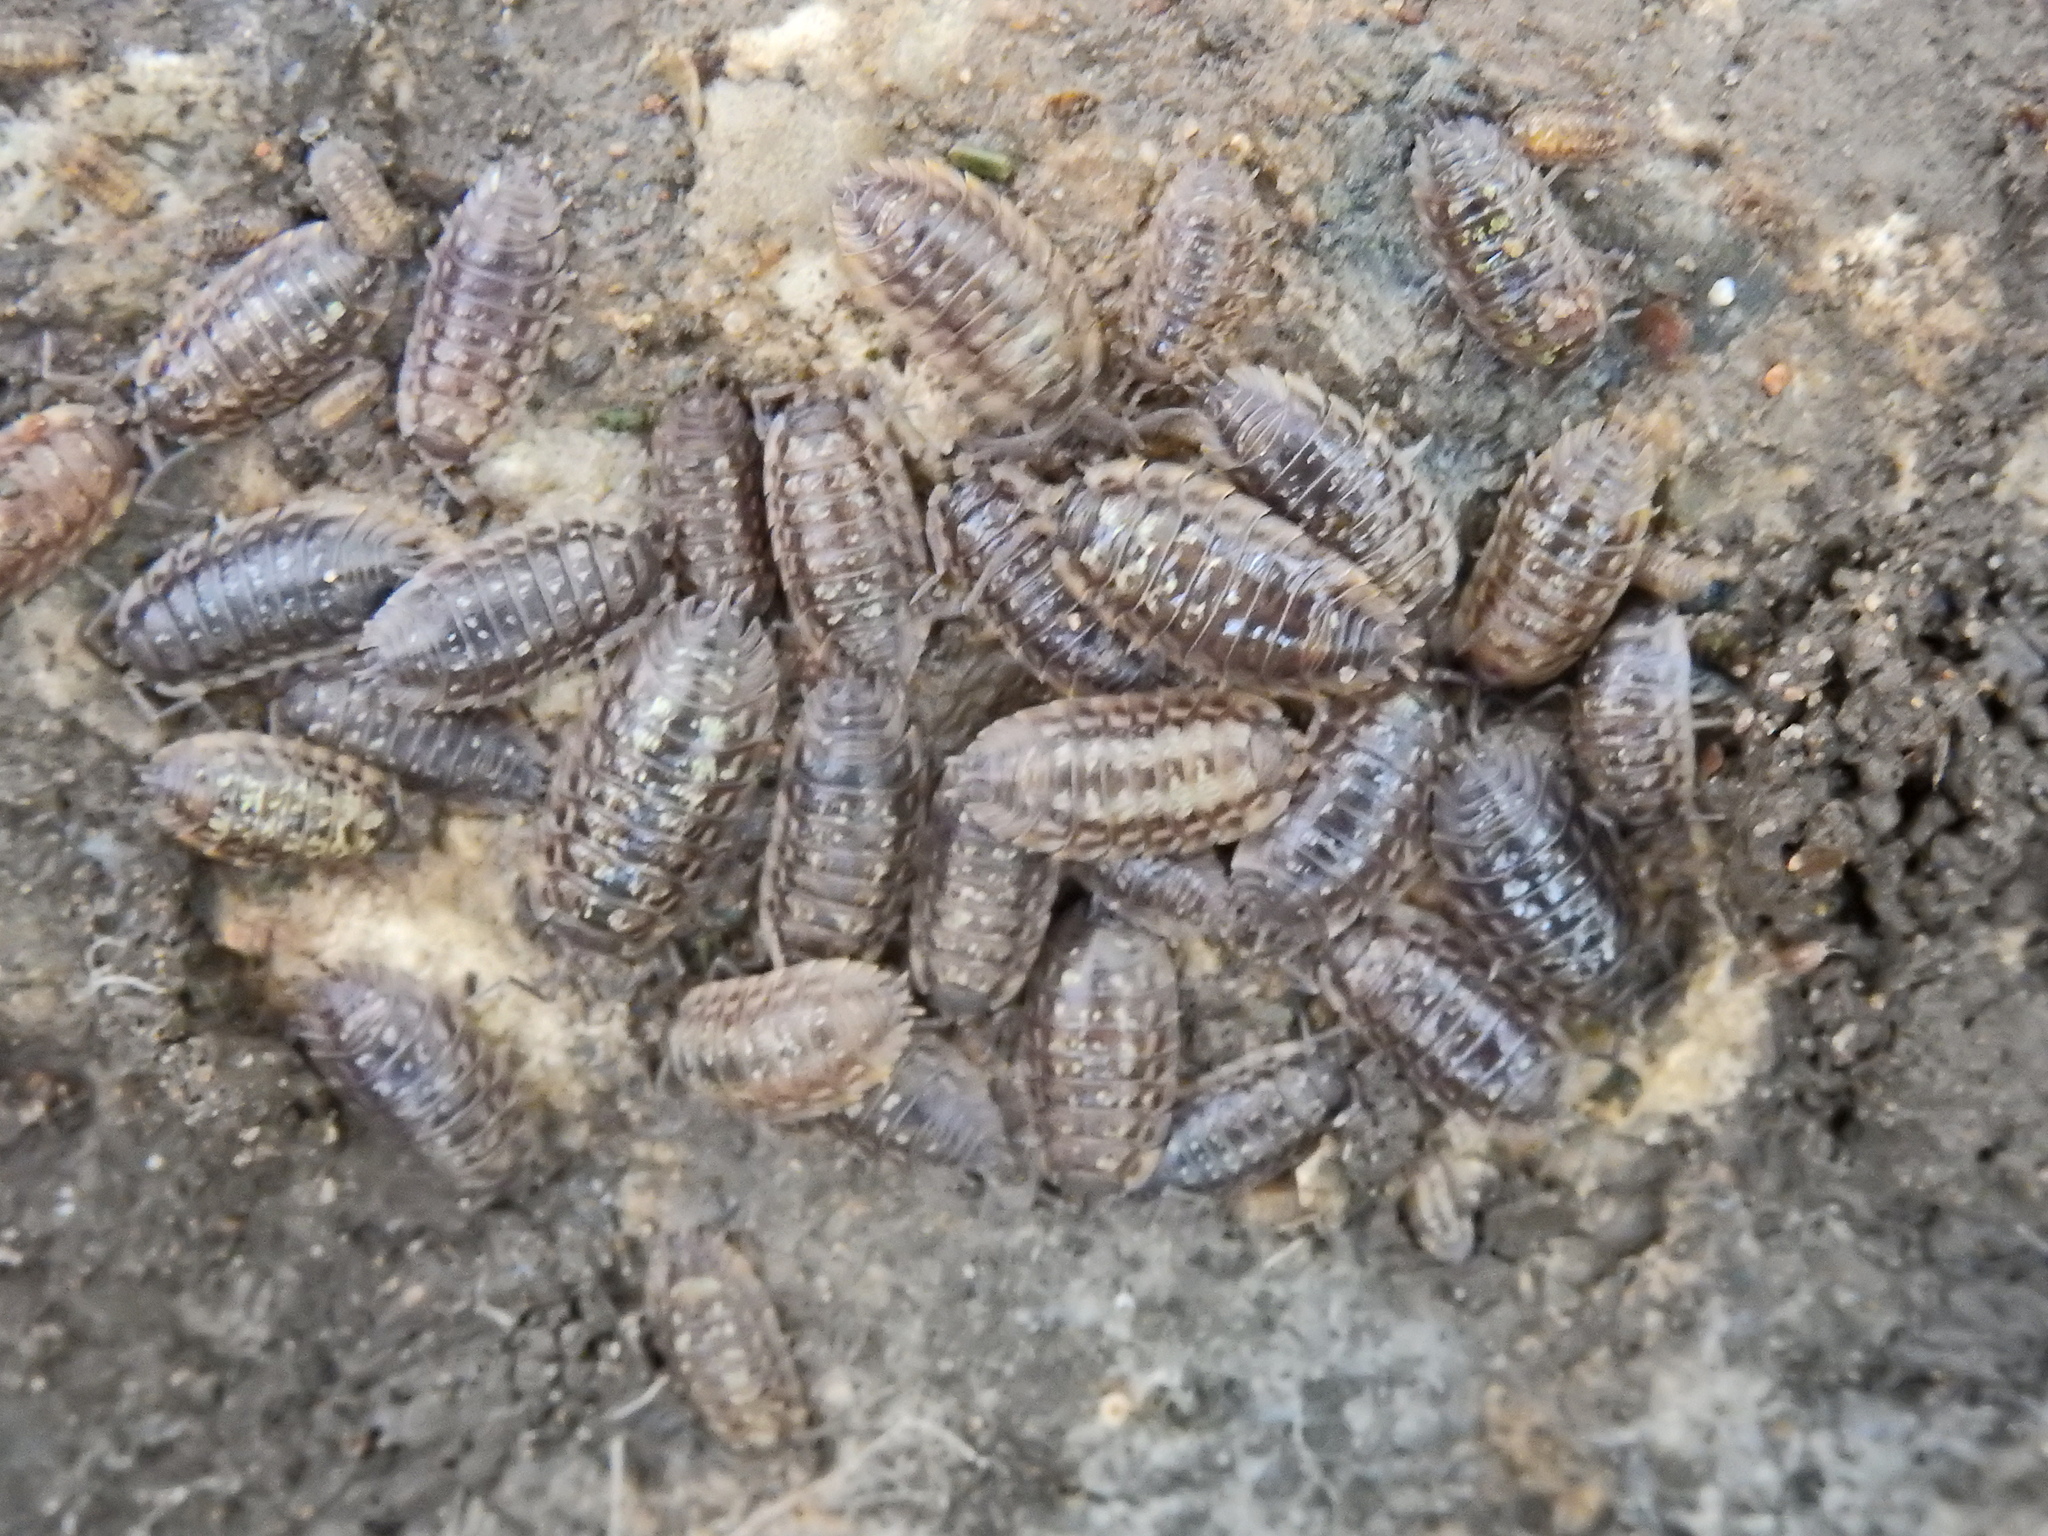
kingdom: Animalia
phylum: Arthropoda
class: Malacostraca
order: Isopoda
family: Oniscidae
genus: Oniscus
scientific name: Oniscus asellus
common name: Common shiny woodlouse
